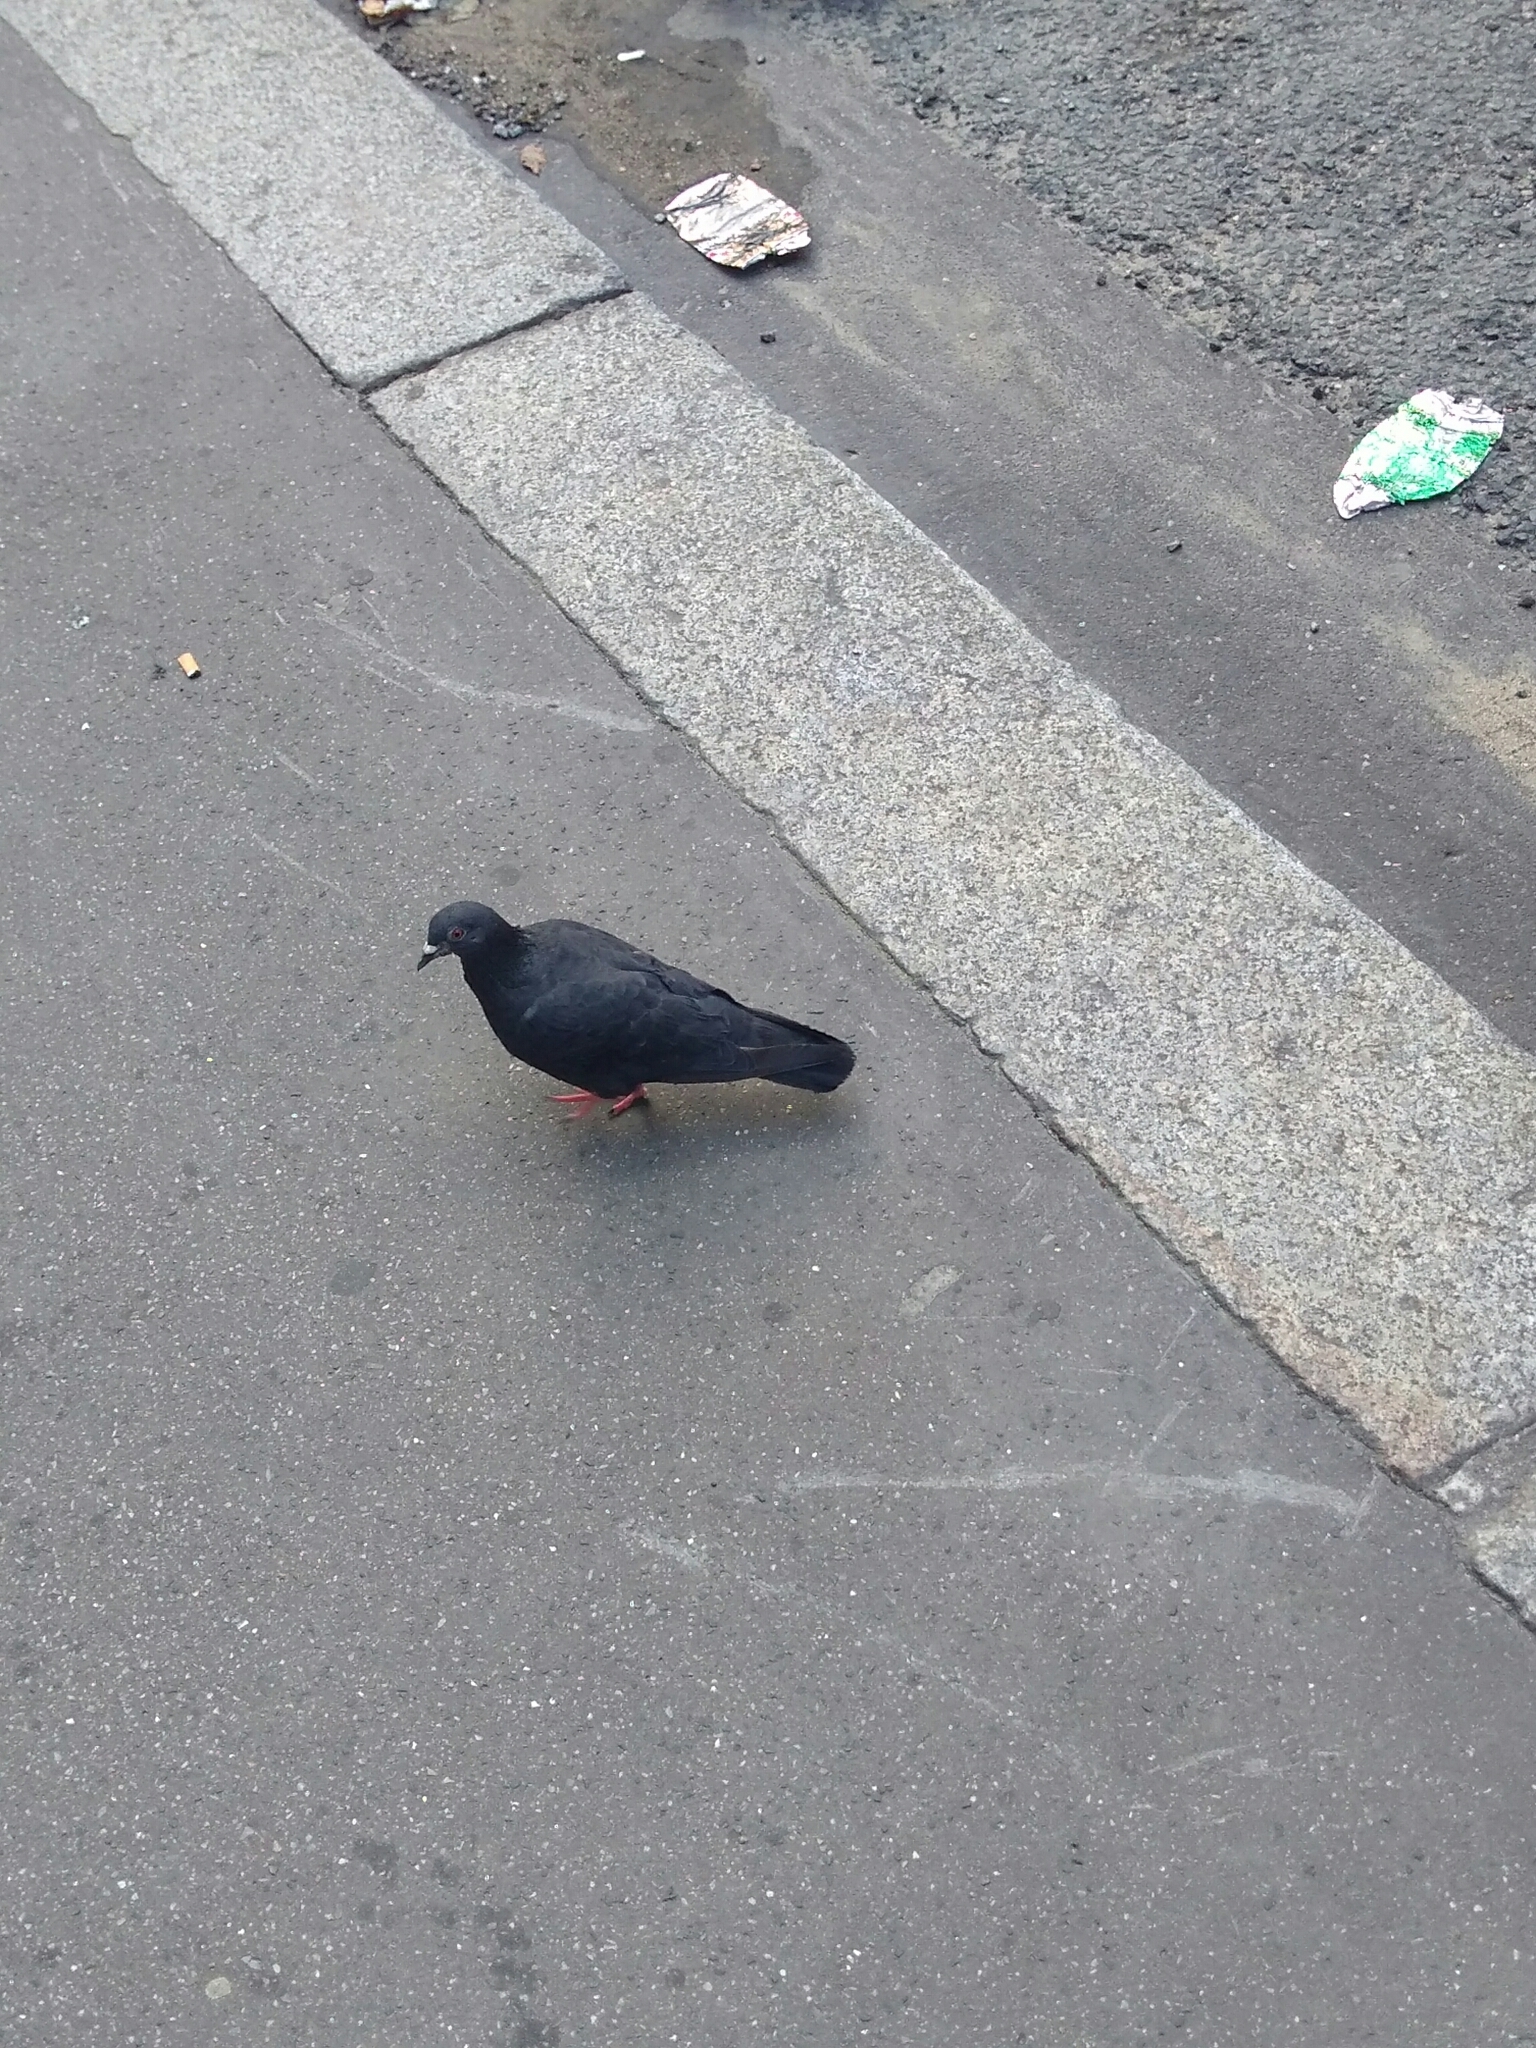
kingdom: Animalia
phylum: Chordata
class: Aves
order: Columbiformes
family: Columbidae
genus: Columba
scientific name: Columba livia
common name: Rock pigeon
